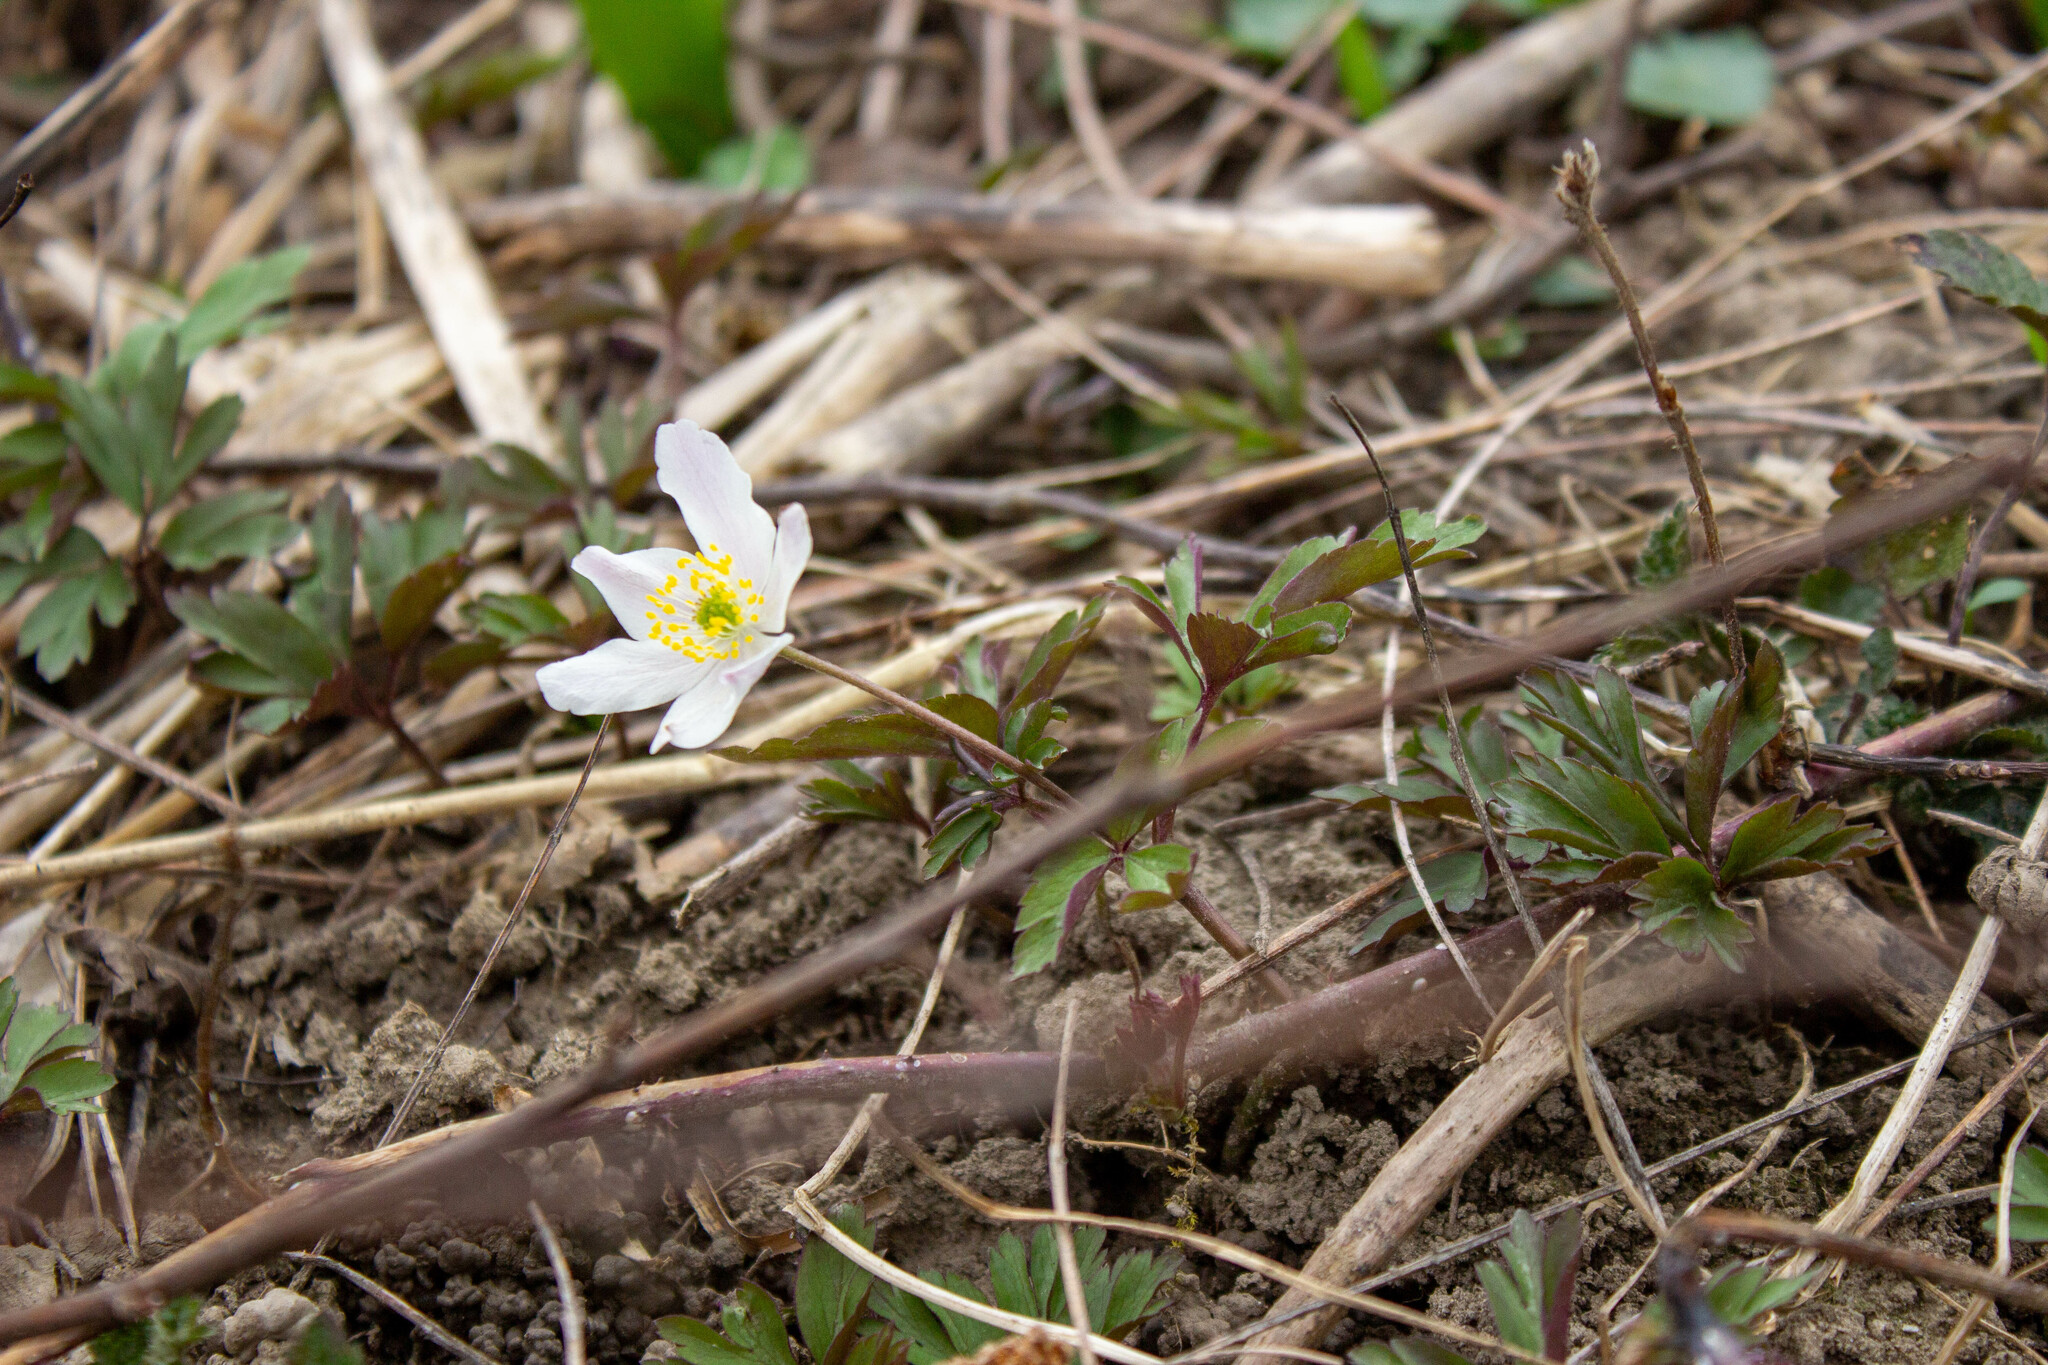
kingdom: Plantae
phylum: Tracheophyta
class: Magnoliopsida
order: Ranunculales
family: Ranunculaceae
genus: Anemone
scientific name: Anemone nemorosa
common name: Wood anemone
